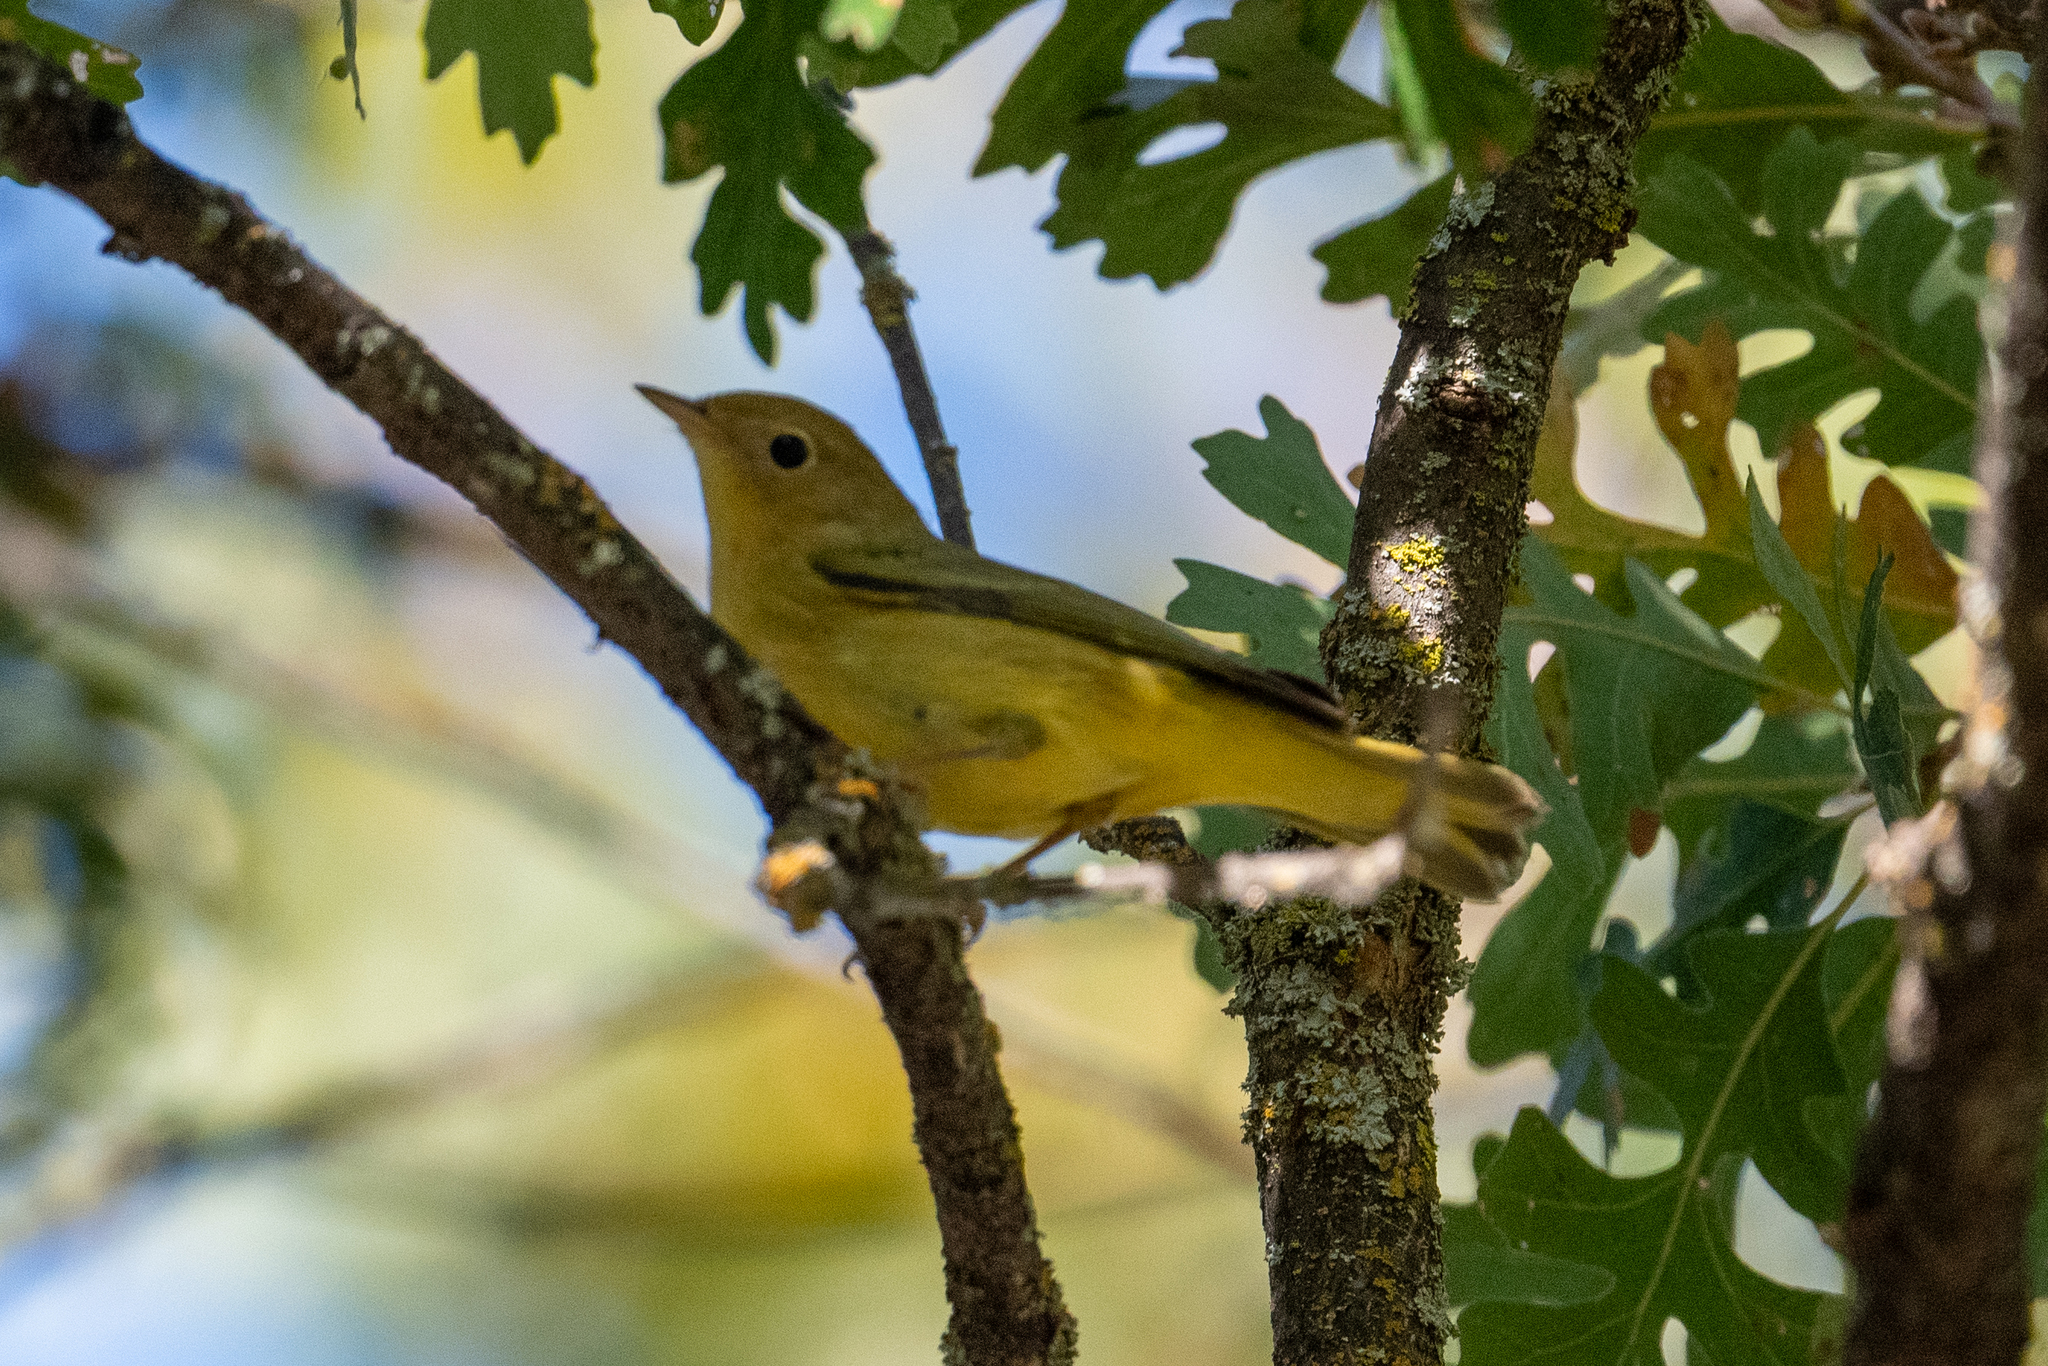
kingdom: Animalia
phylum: Chordata
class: Aves
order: Passeriformes
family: Parulidae
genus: Setophaga
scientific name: Setophaga petechia
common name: Yellow warbler
